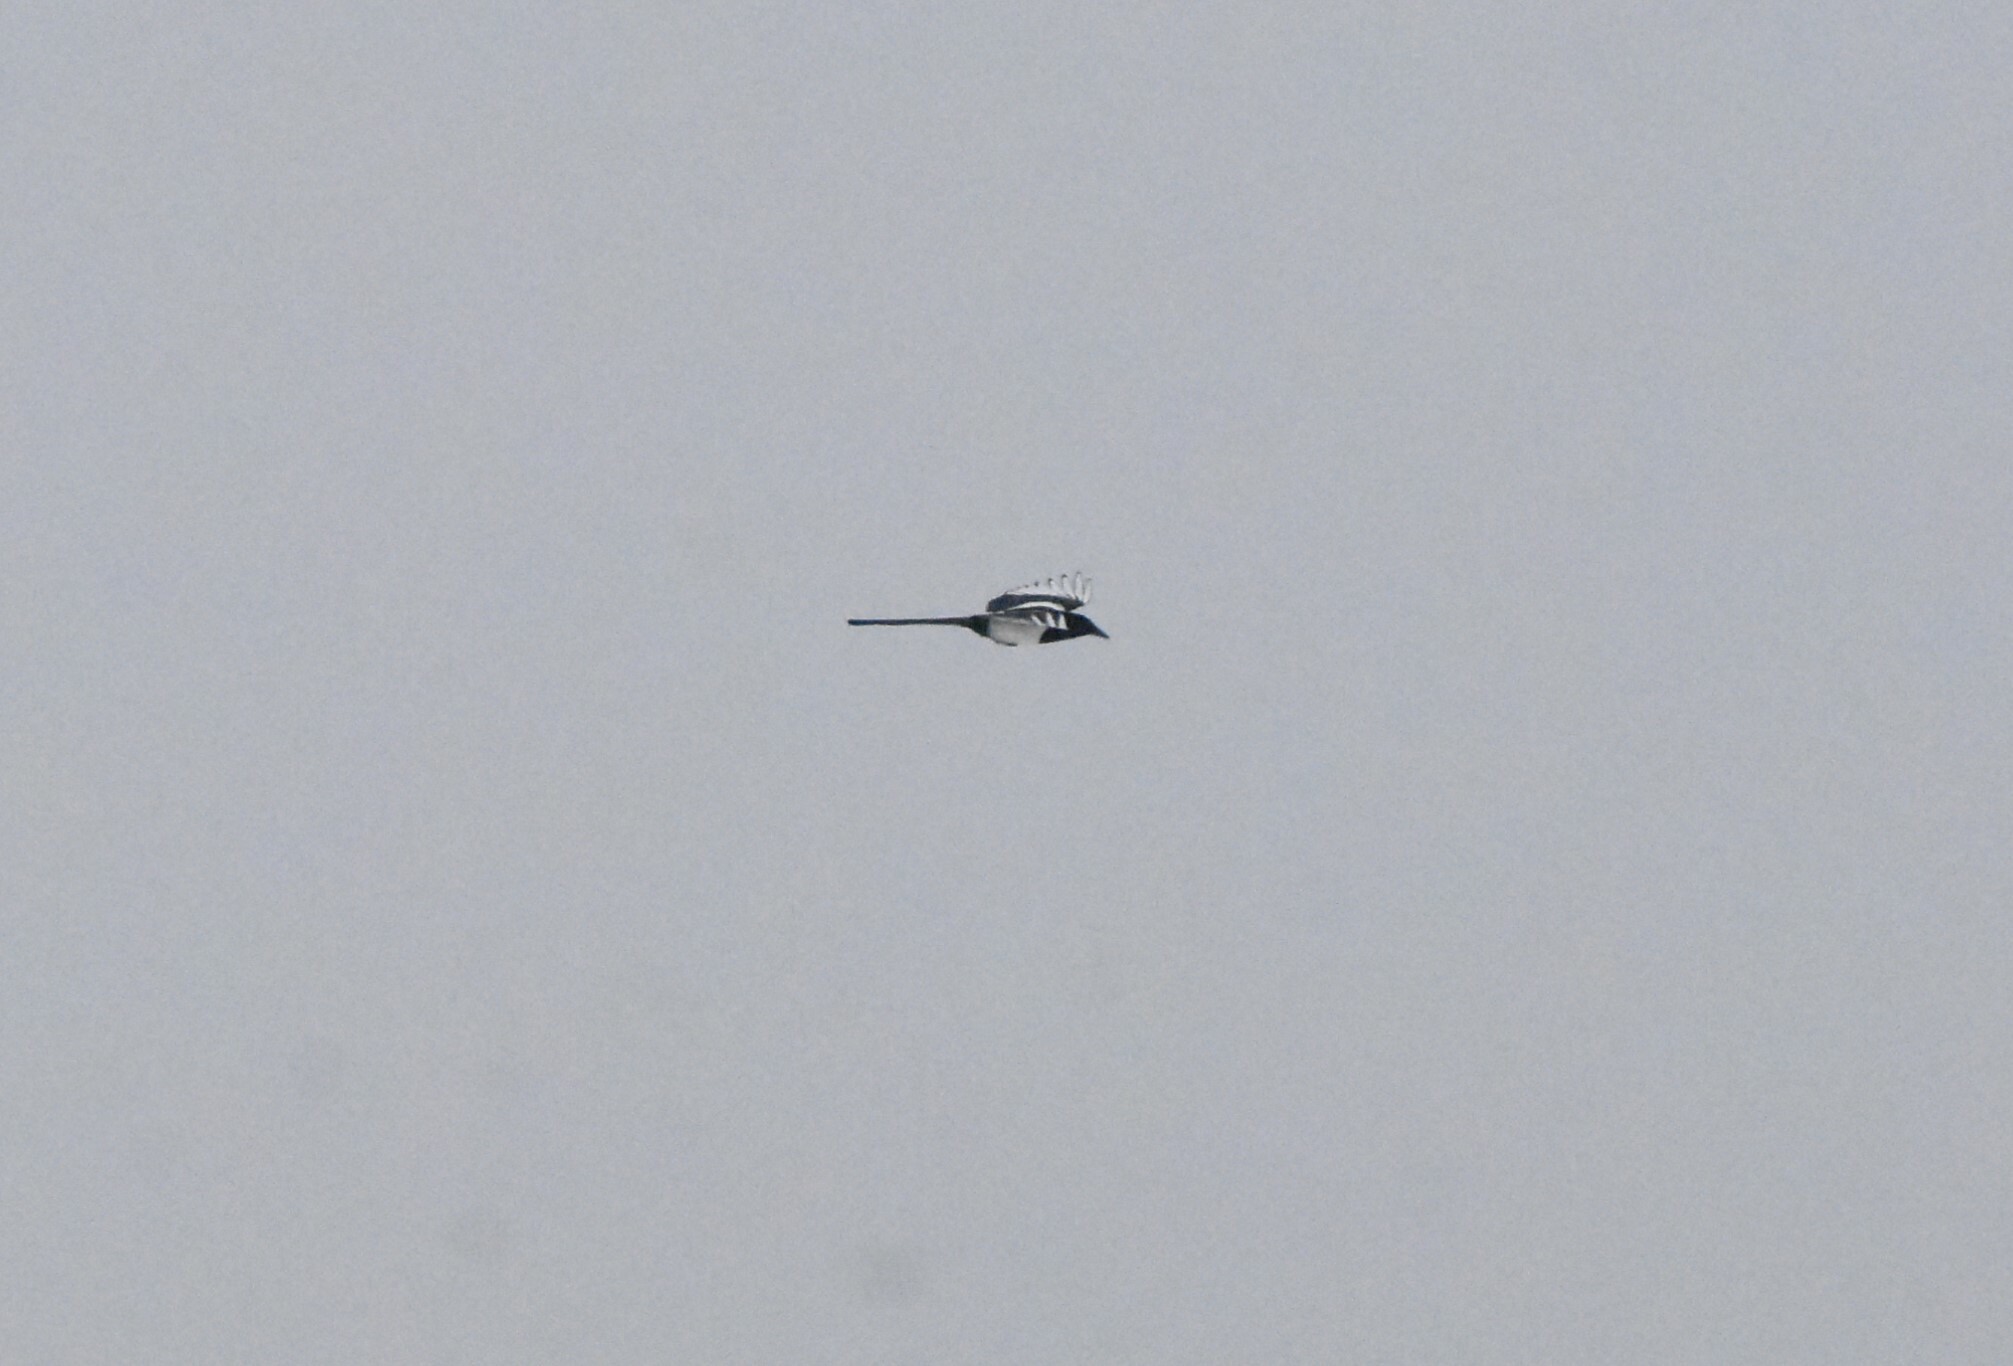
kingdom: Animalia
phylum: Chordata
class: Aves
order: Passeriformes
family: Corvidae
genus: Pica
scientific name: Pica pica
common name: Eurasian magpie
